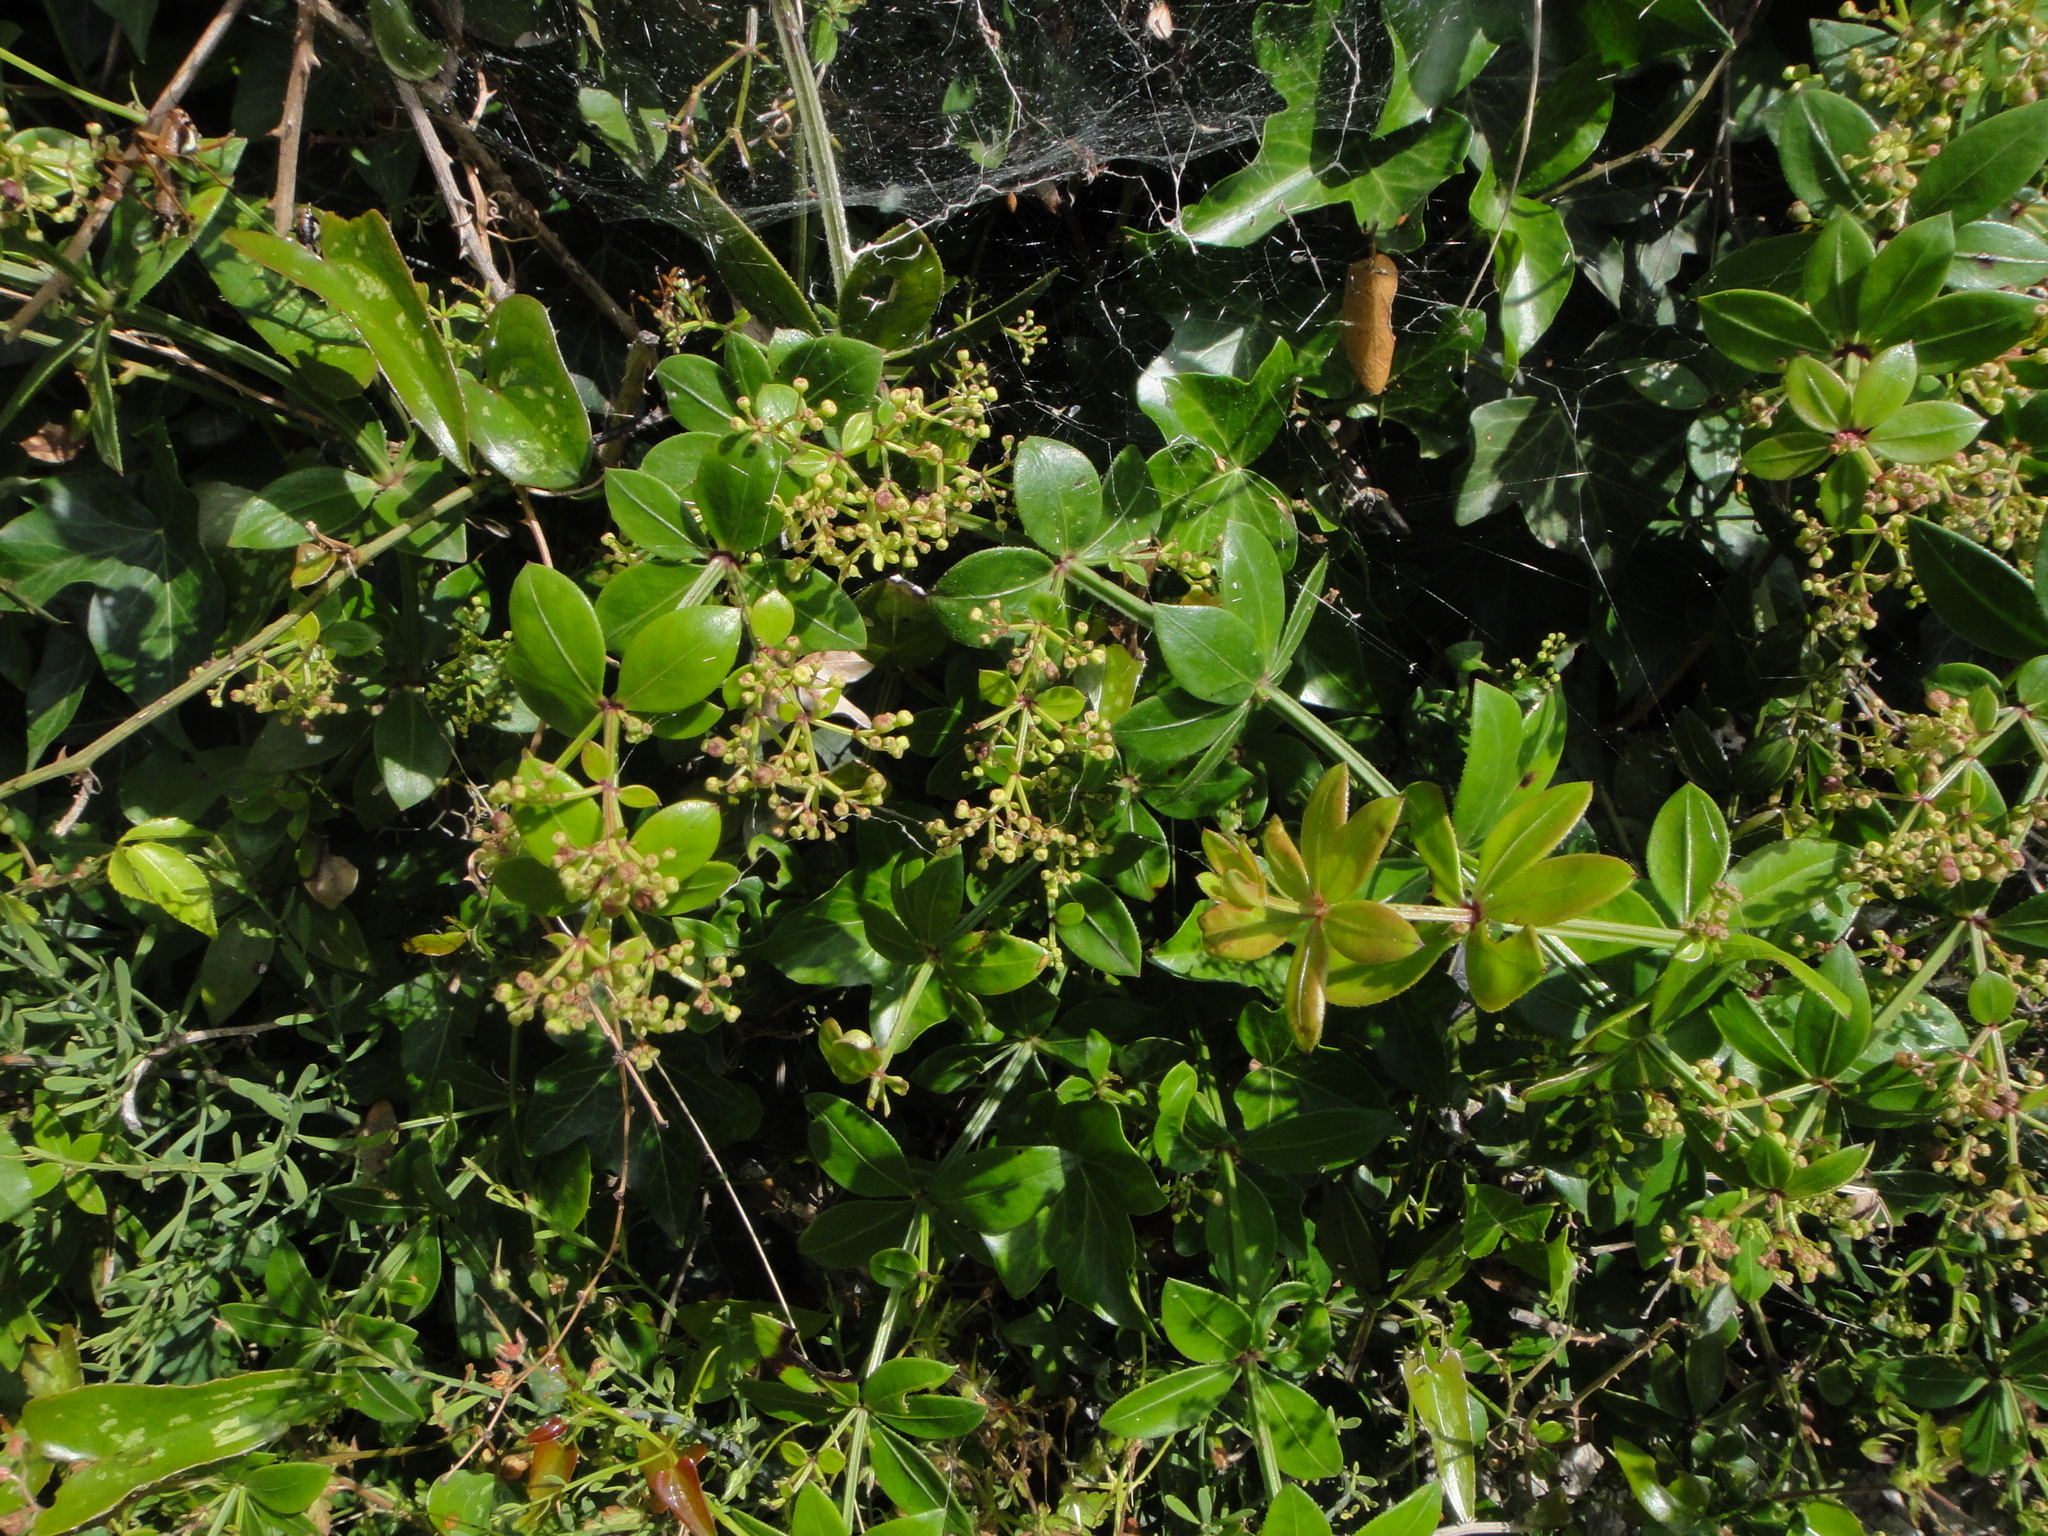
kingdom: Plantae
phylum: Tracheophyta
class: Magnoliopsida
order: Gentianales
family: Rubiaceae
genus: Rubia
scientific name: Rubia peregrina
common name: Wild madder
